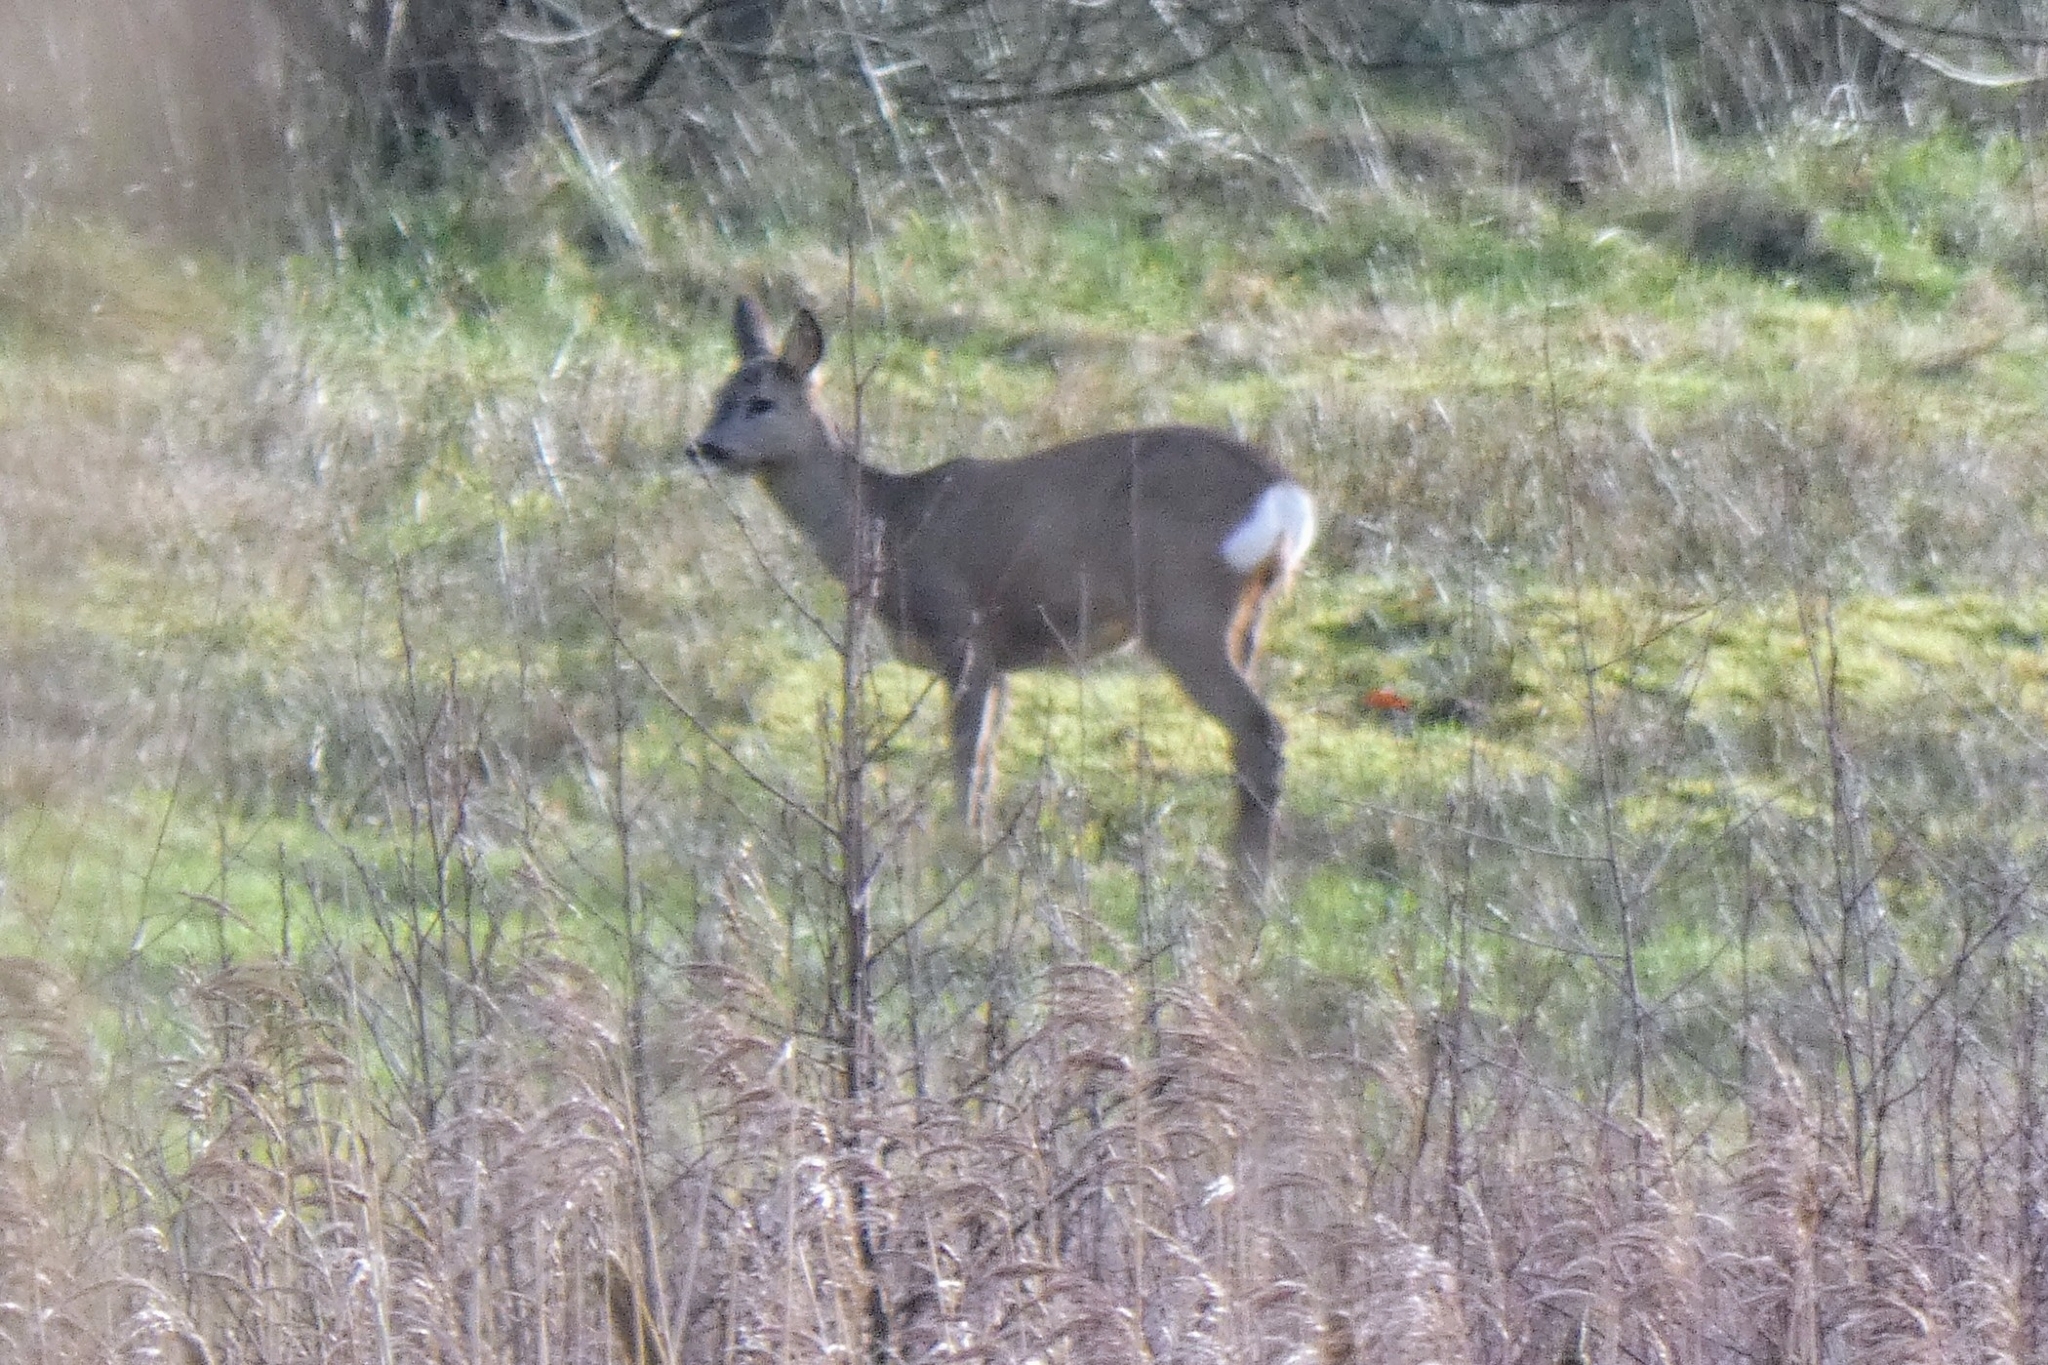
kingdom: Animalia
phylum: Chordata
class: Mammalia
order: Artiodactyla
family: Cervidae
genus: Capreolus
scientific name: Capreolus capreolus
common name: Western roe deer
